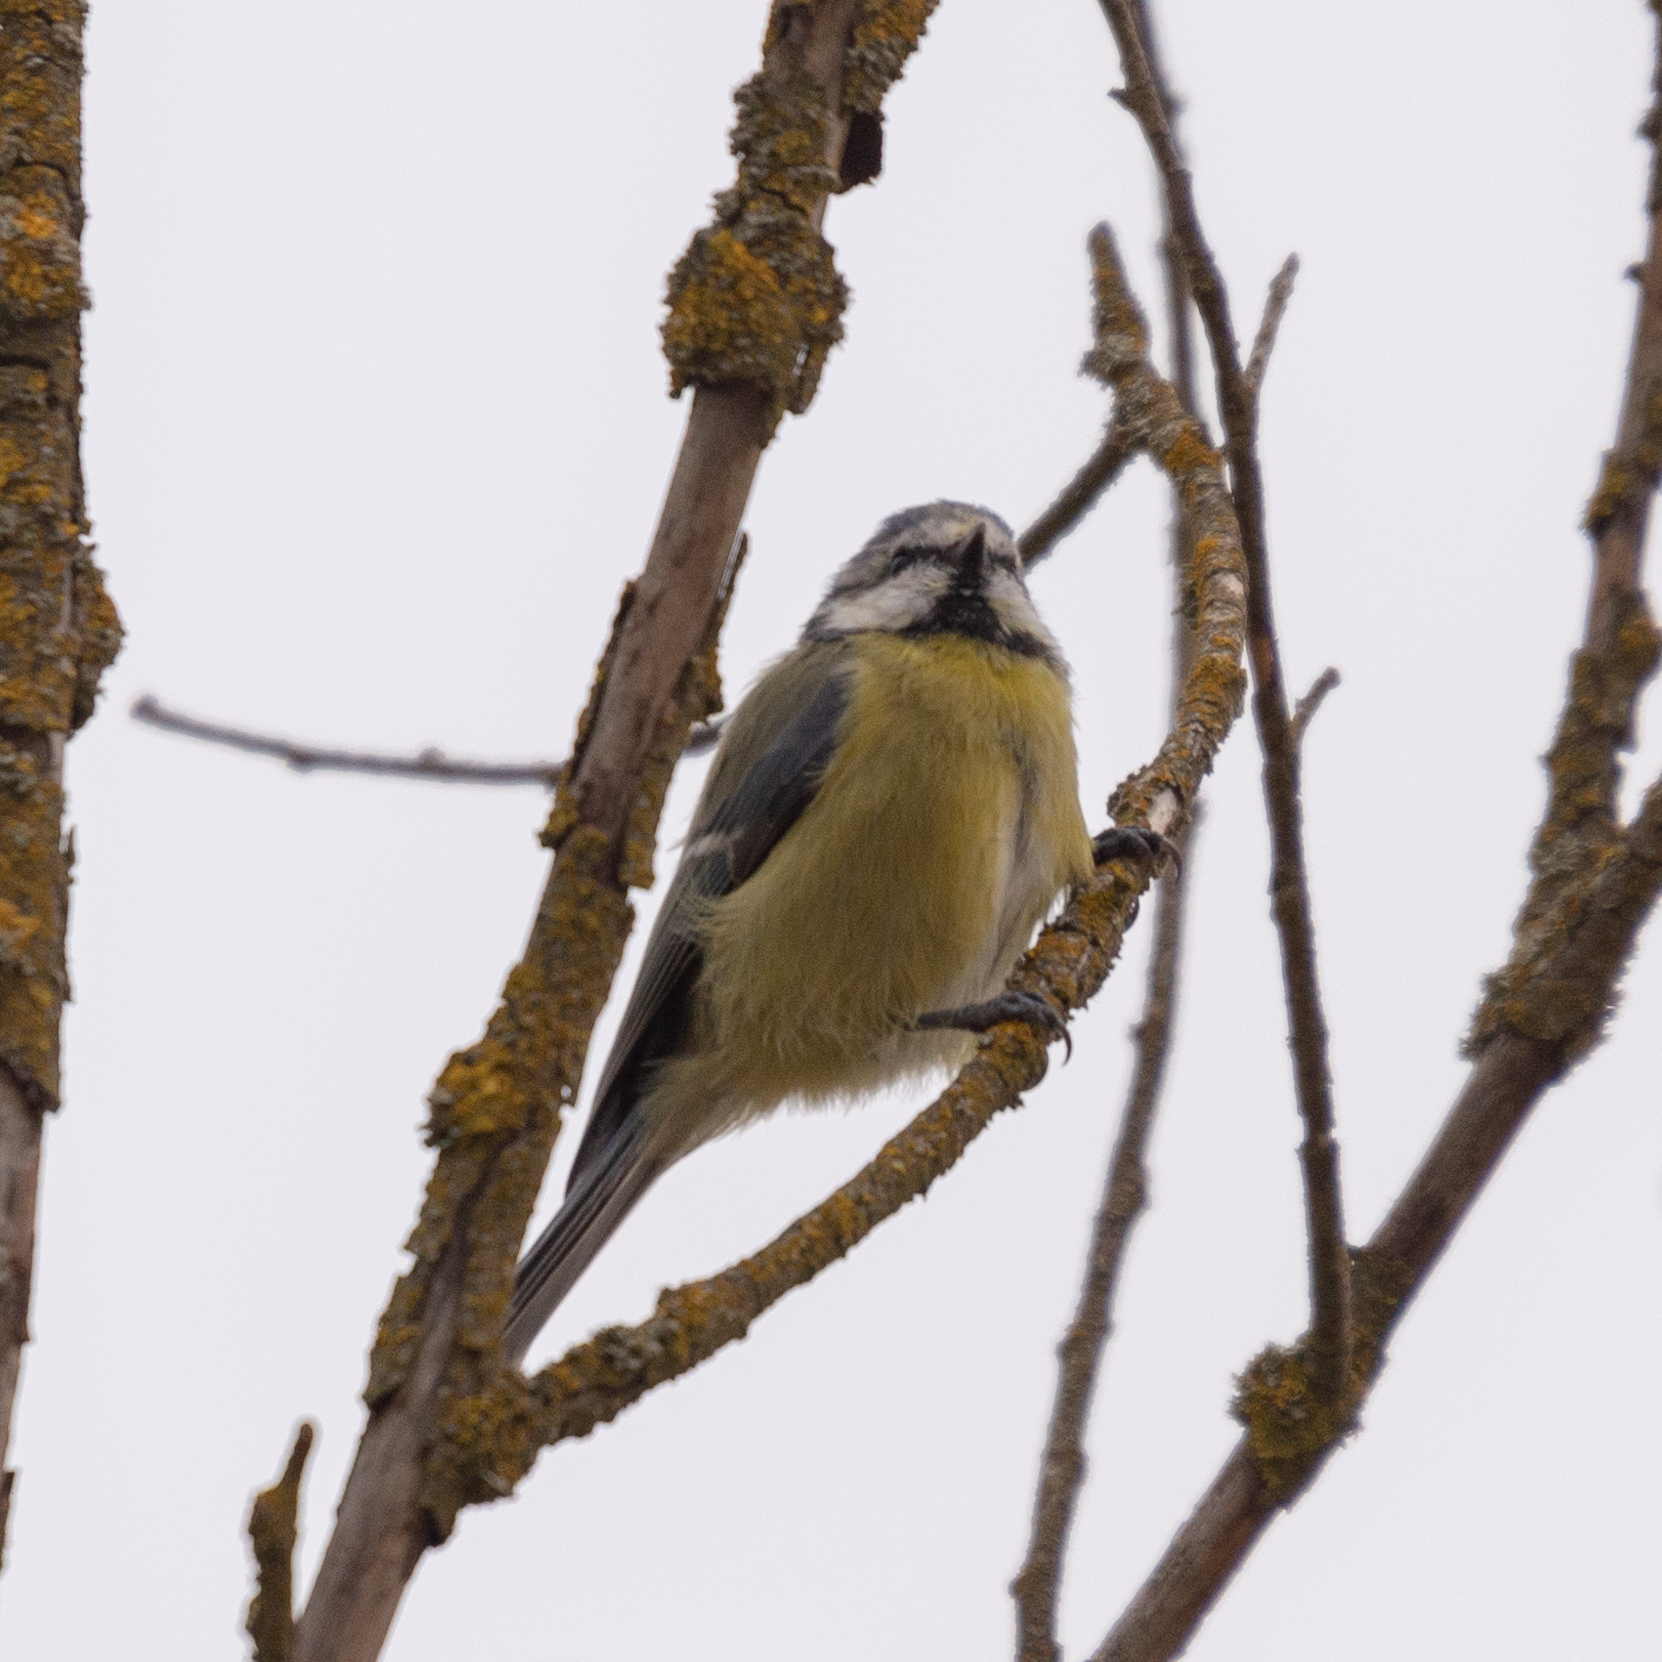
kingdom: Animalia
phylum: Chordata
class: Aves
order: Passeriformes
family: Paridae
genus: Cyanistes
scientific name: Cyanistes caeruleus
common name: Eurasian blue tit
